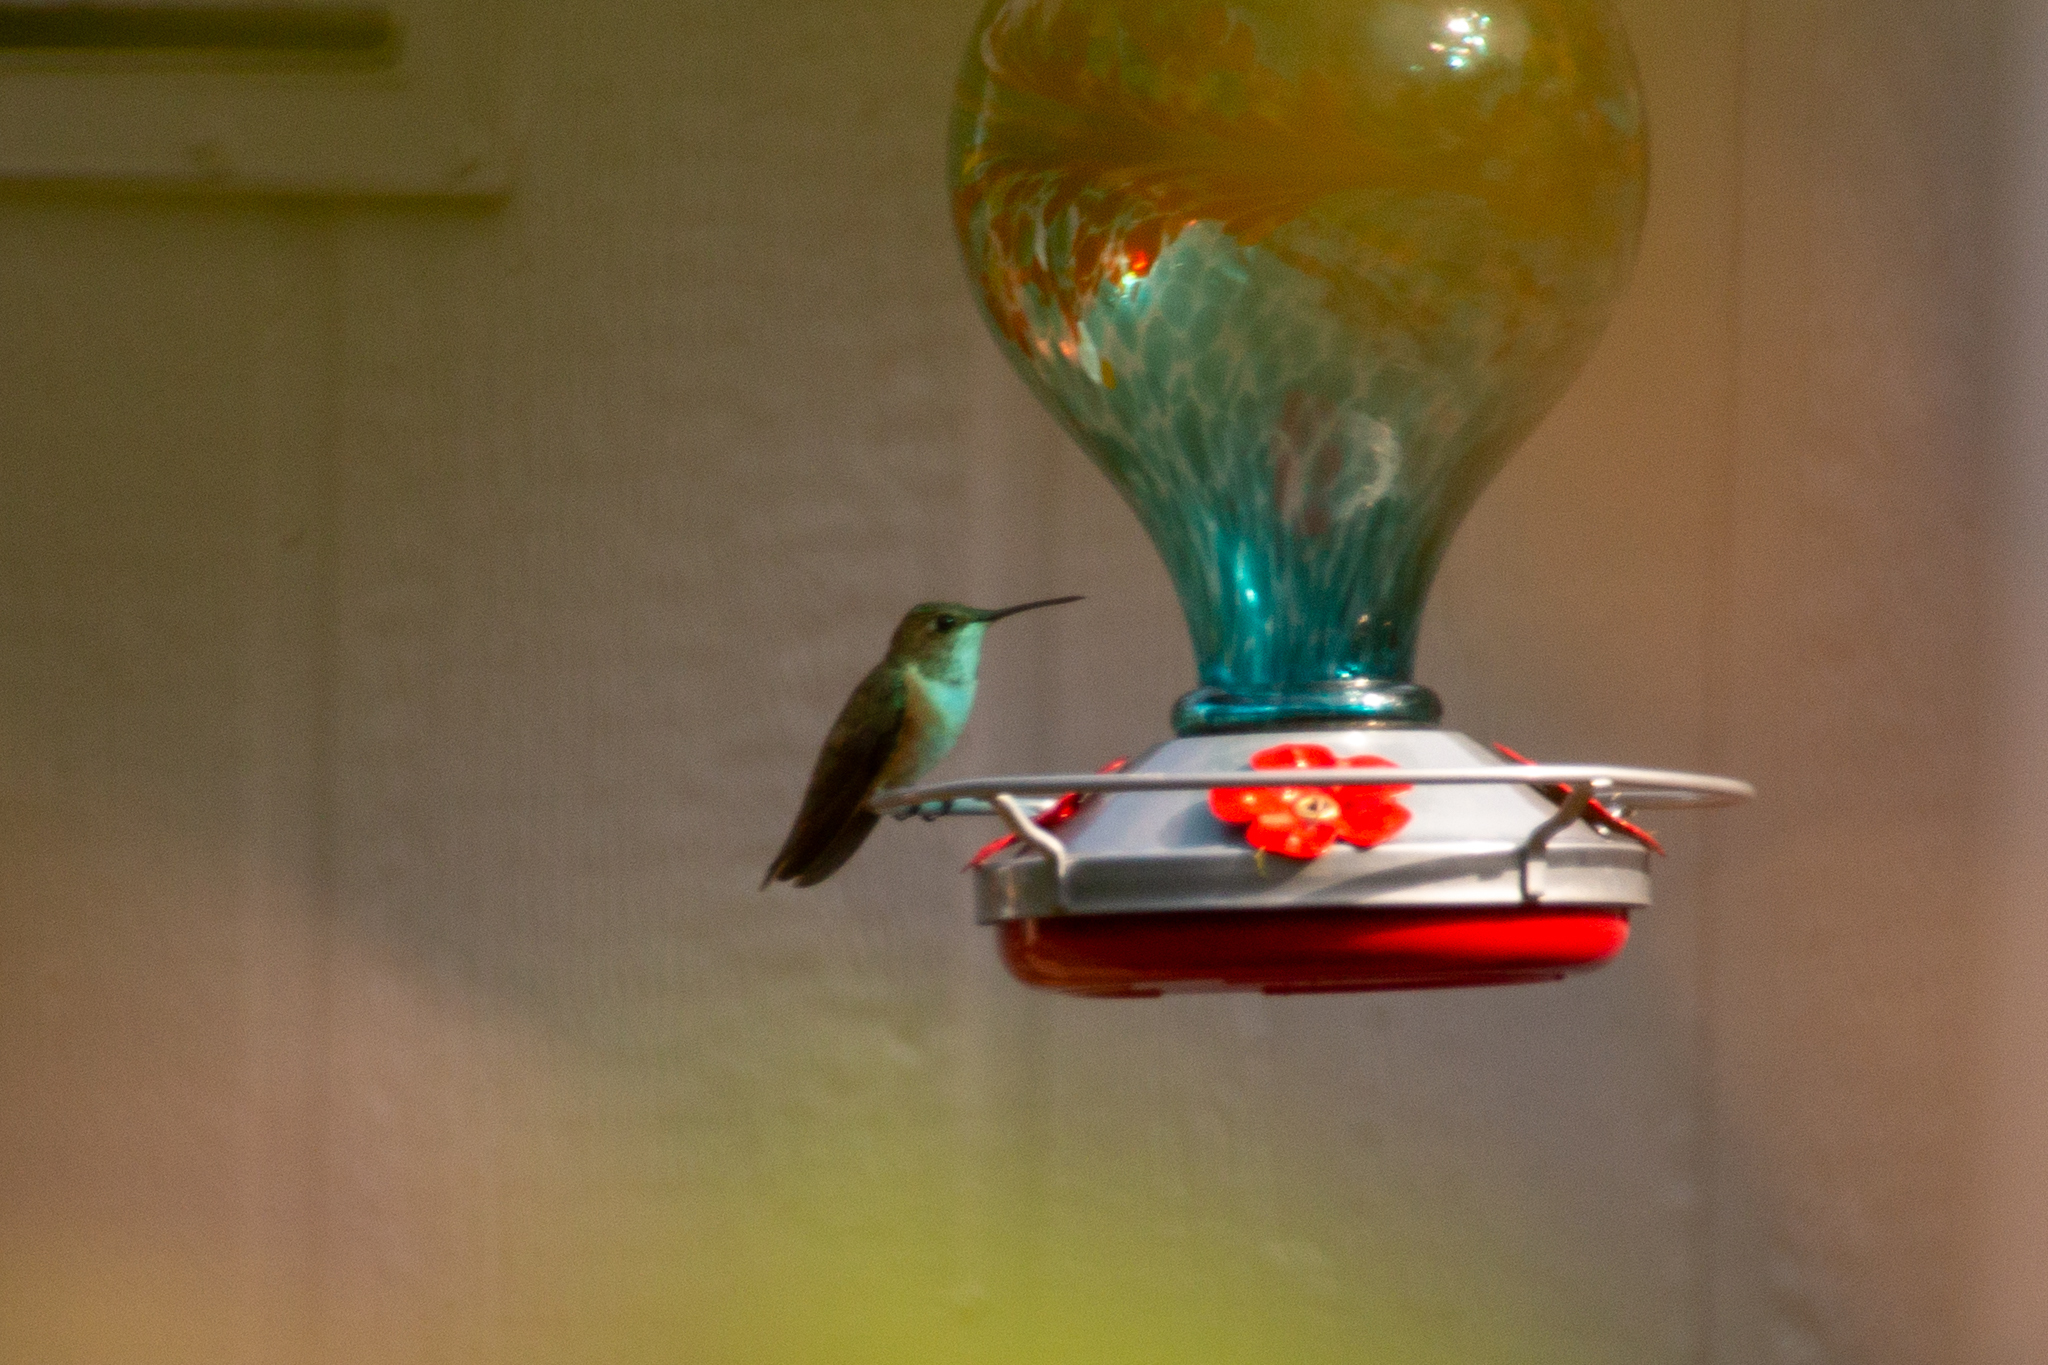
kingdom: Animalia
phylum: Chordata
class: Aves
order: Apodiformes
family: Trochilidae
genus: Selasphorus
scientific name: Selasphorus rufus
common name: Rufous hummingbird
